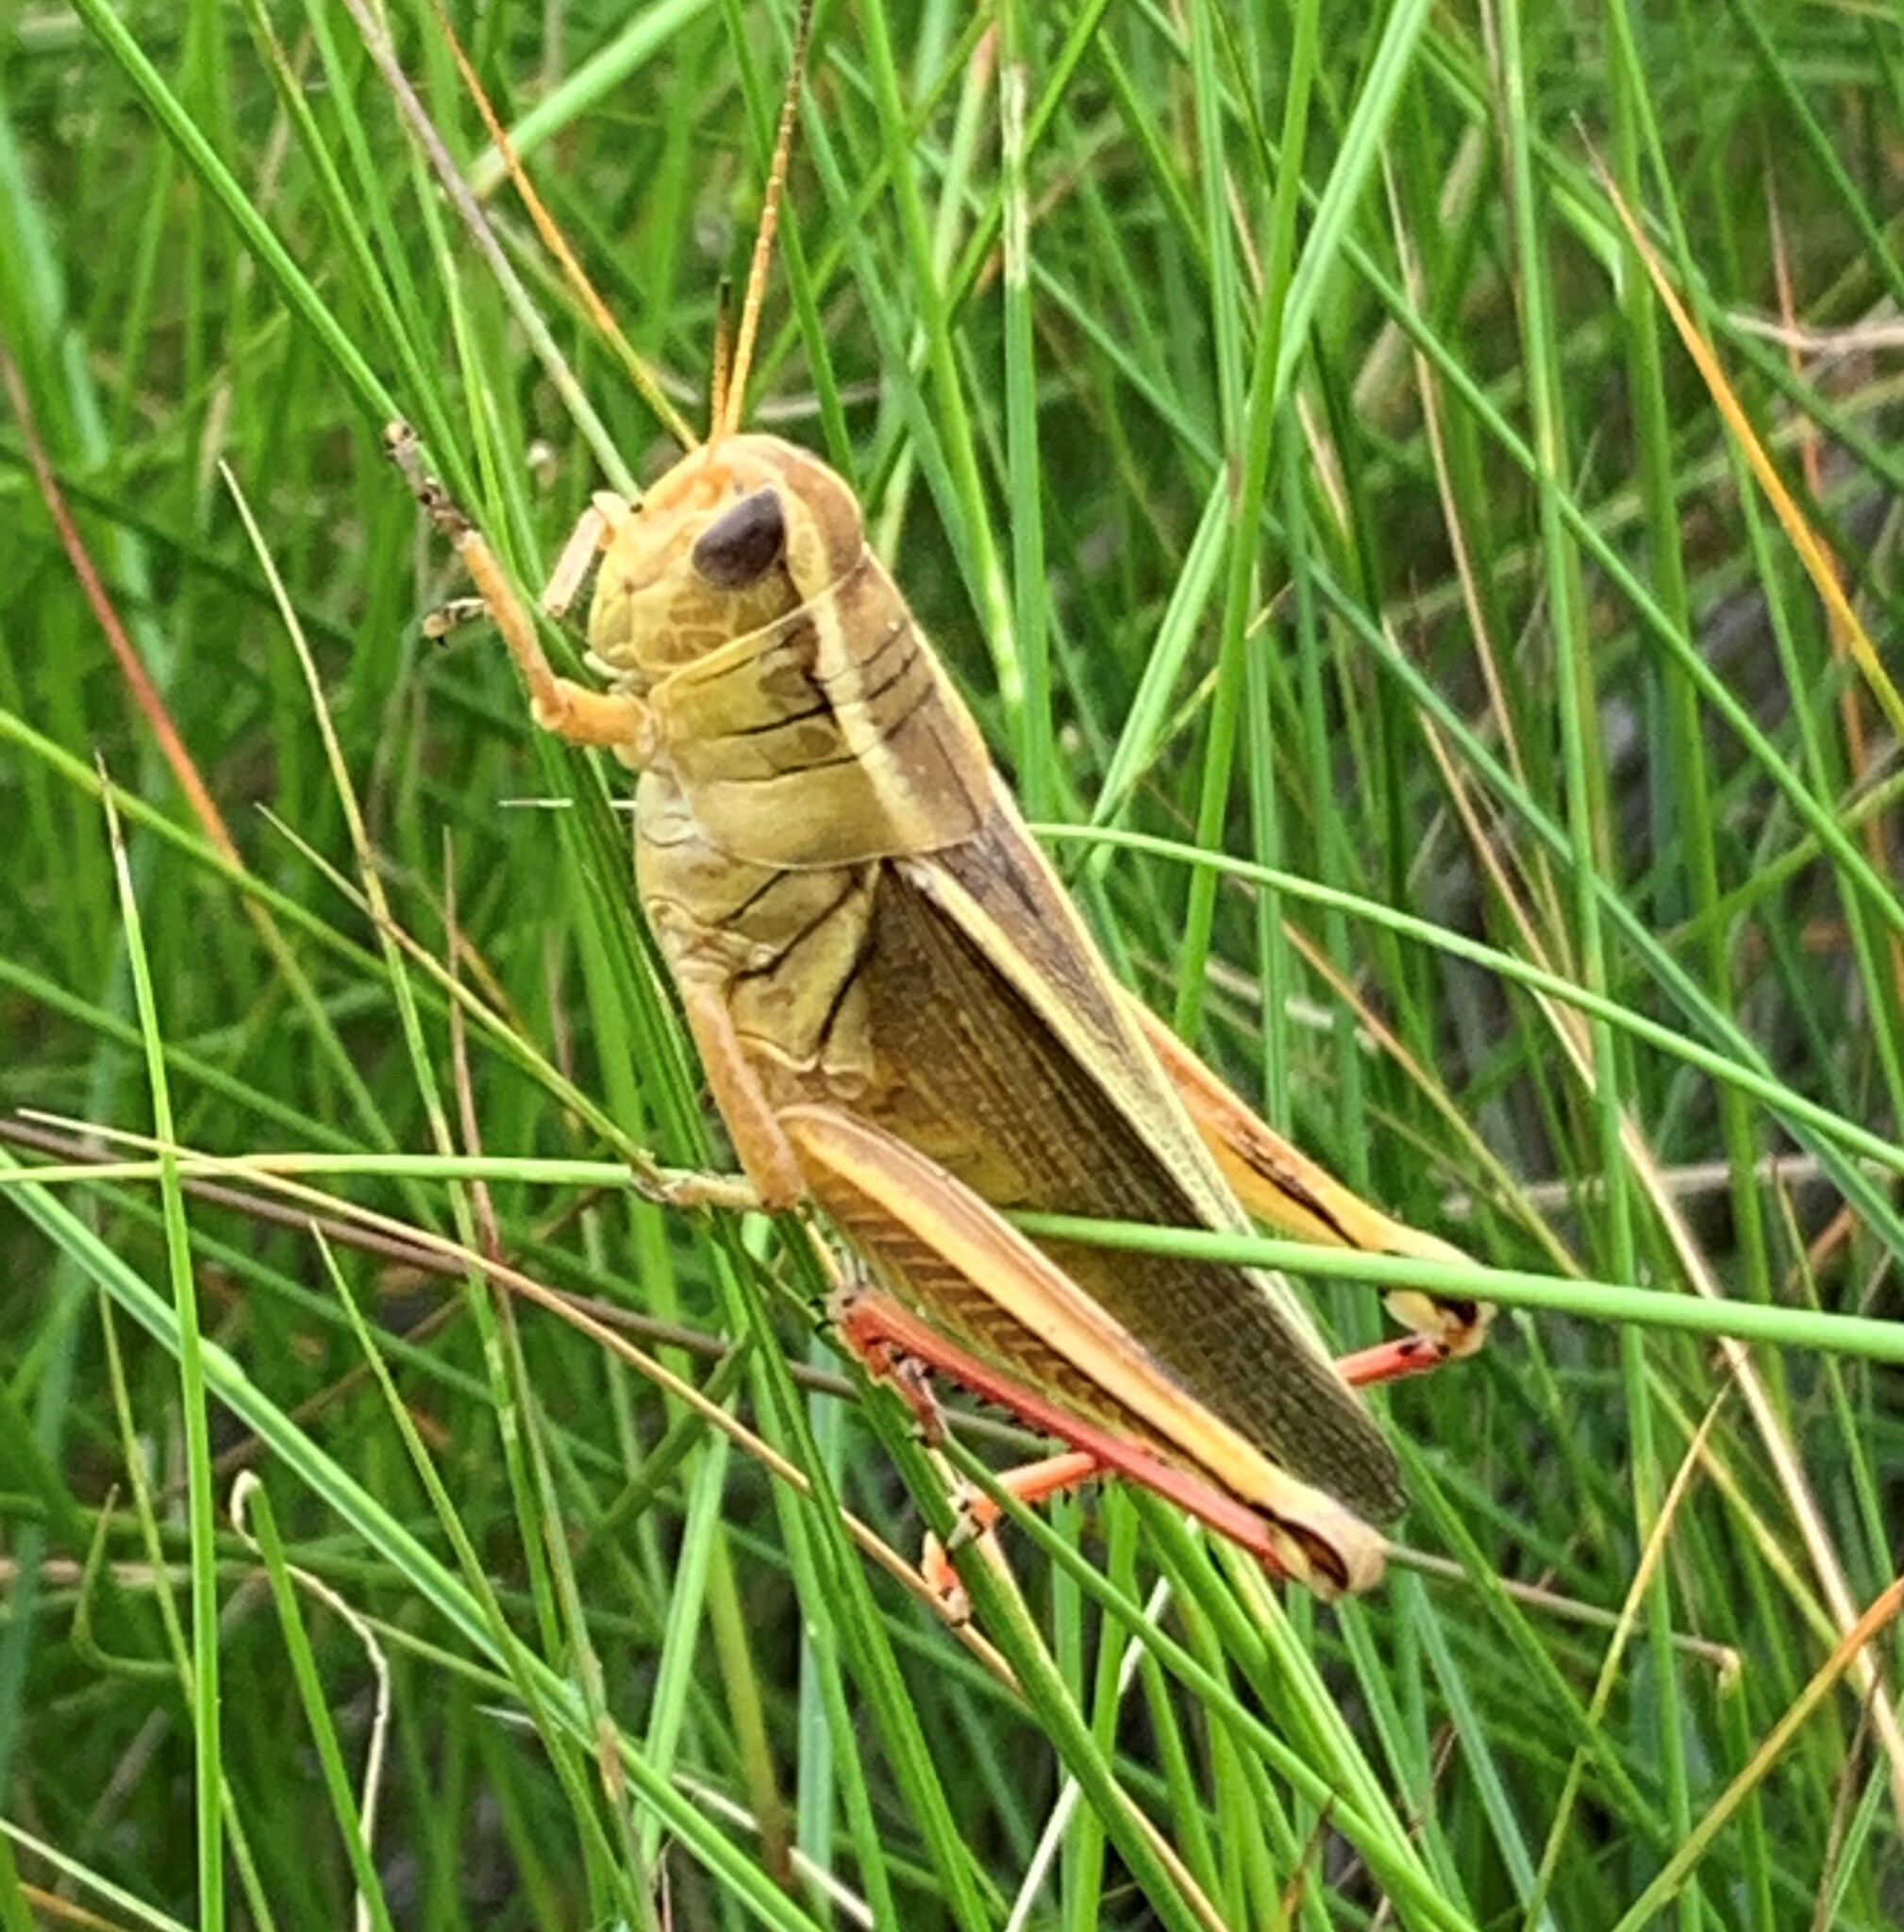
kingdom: Animalia
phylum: Arthropoda
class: Insecta
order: Orthoptera
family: Acrididae
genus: Melanoplus
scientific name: Melanoplus bivittatus
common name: Two-striped grasshopper
